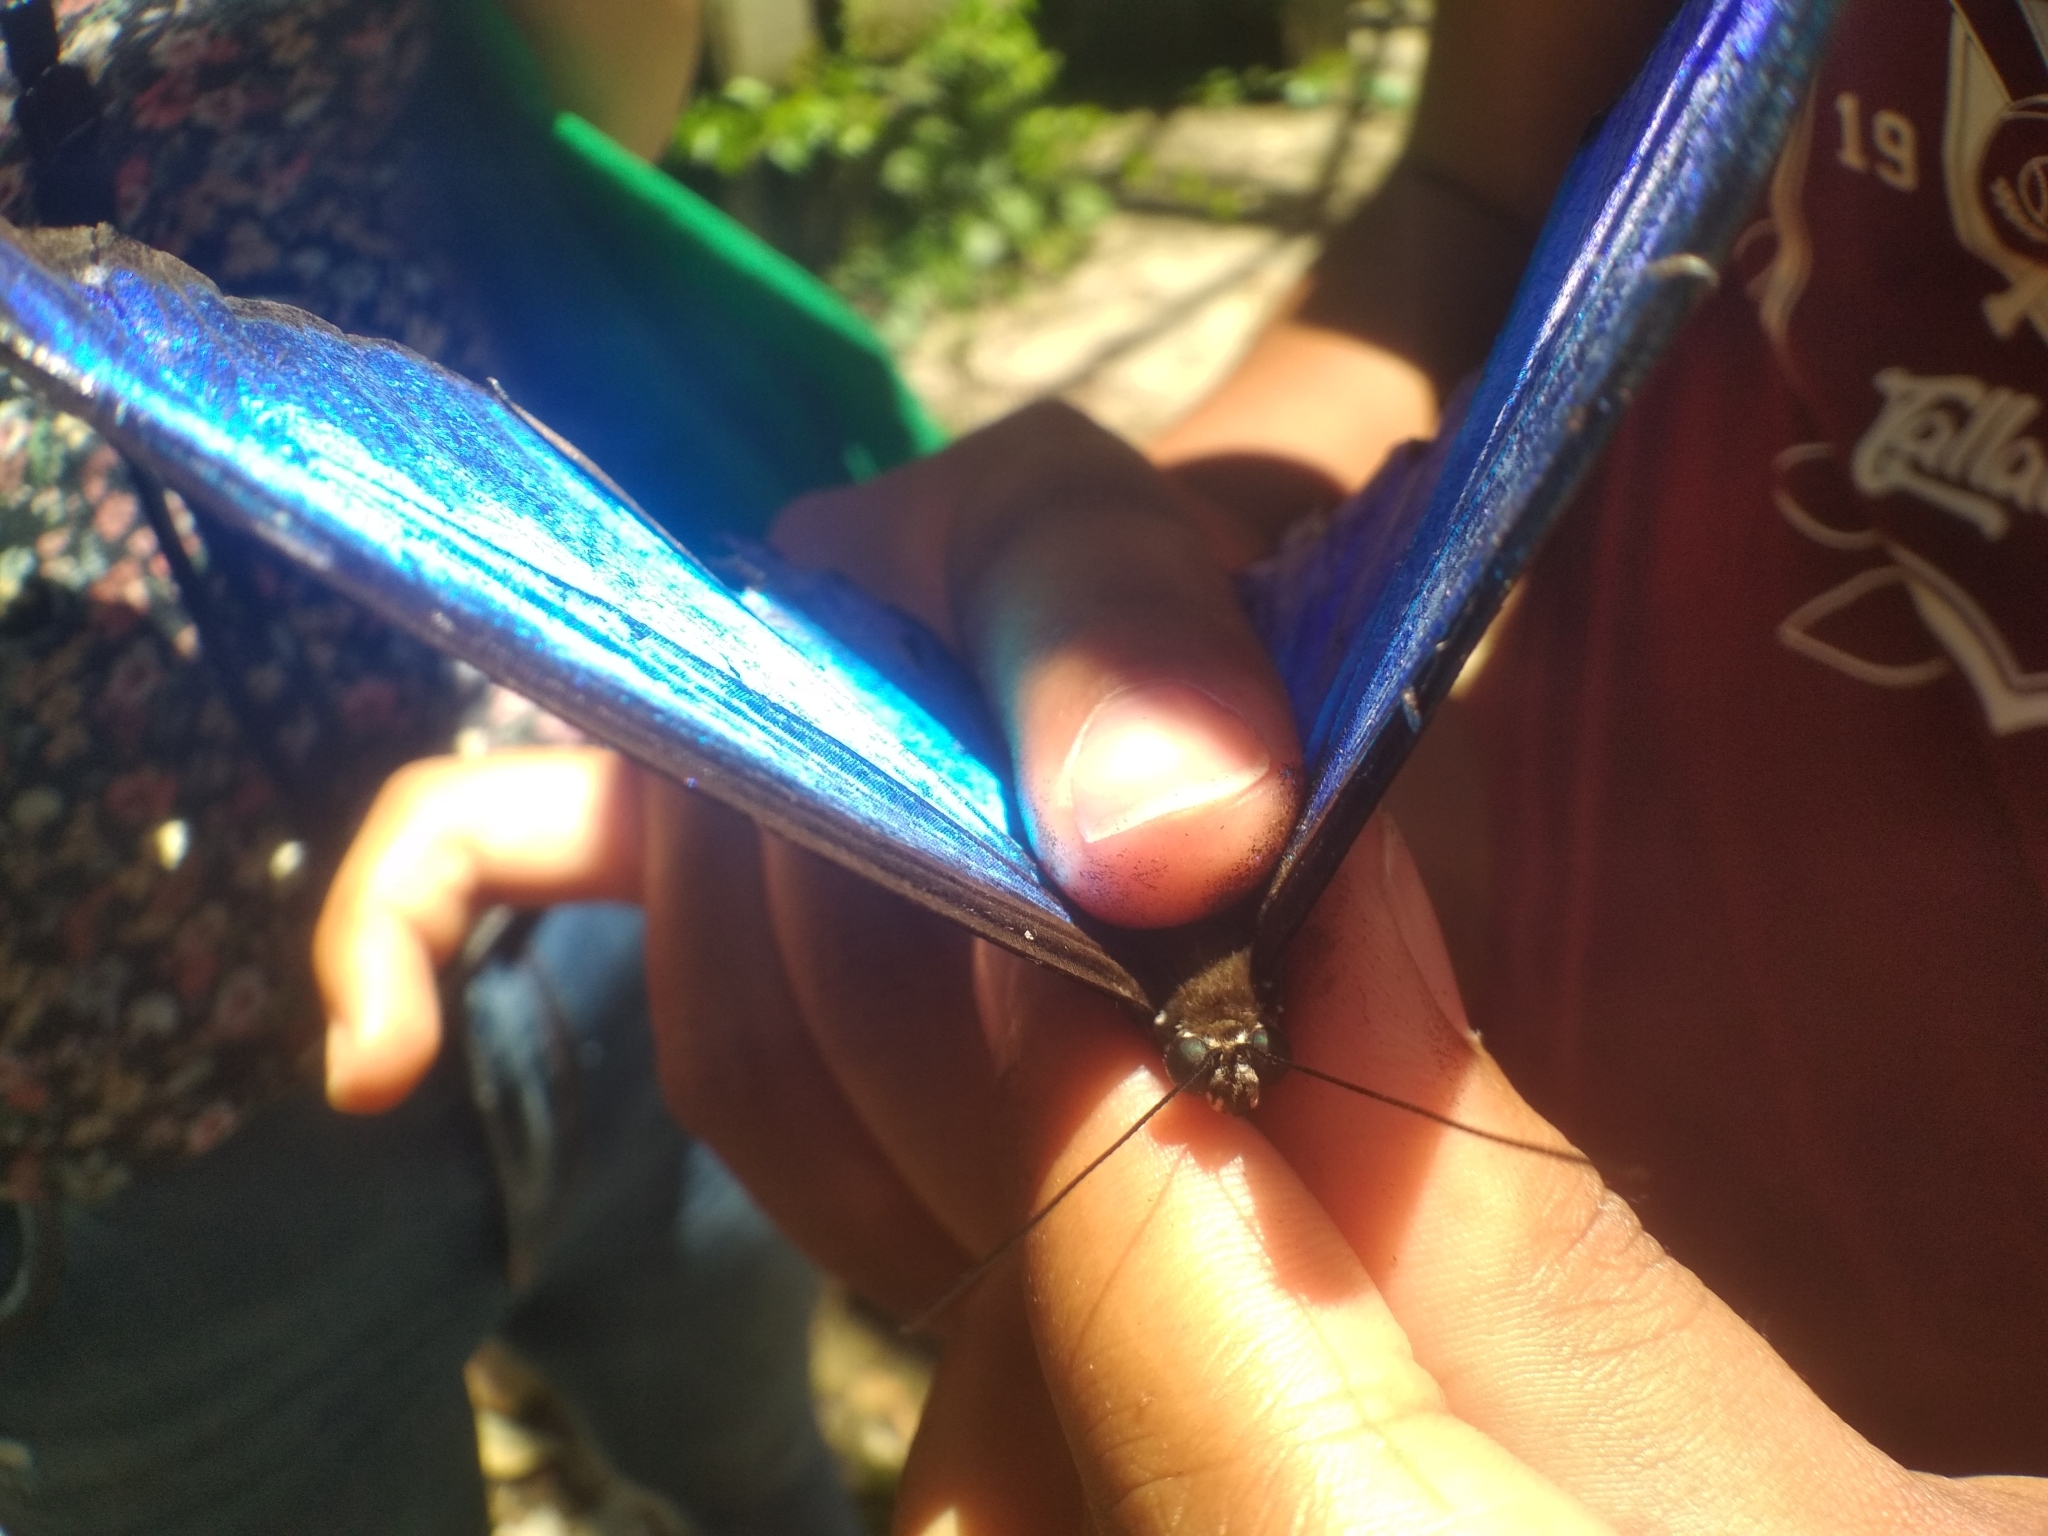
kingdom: Animalia
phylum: Arthropoda
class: Insecta
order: Lepidoptera
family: Nymphalidae
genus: Morpho
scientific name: Morpho menelaus
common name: Menelaus morpho
